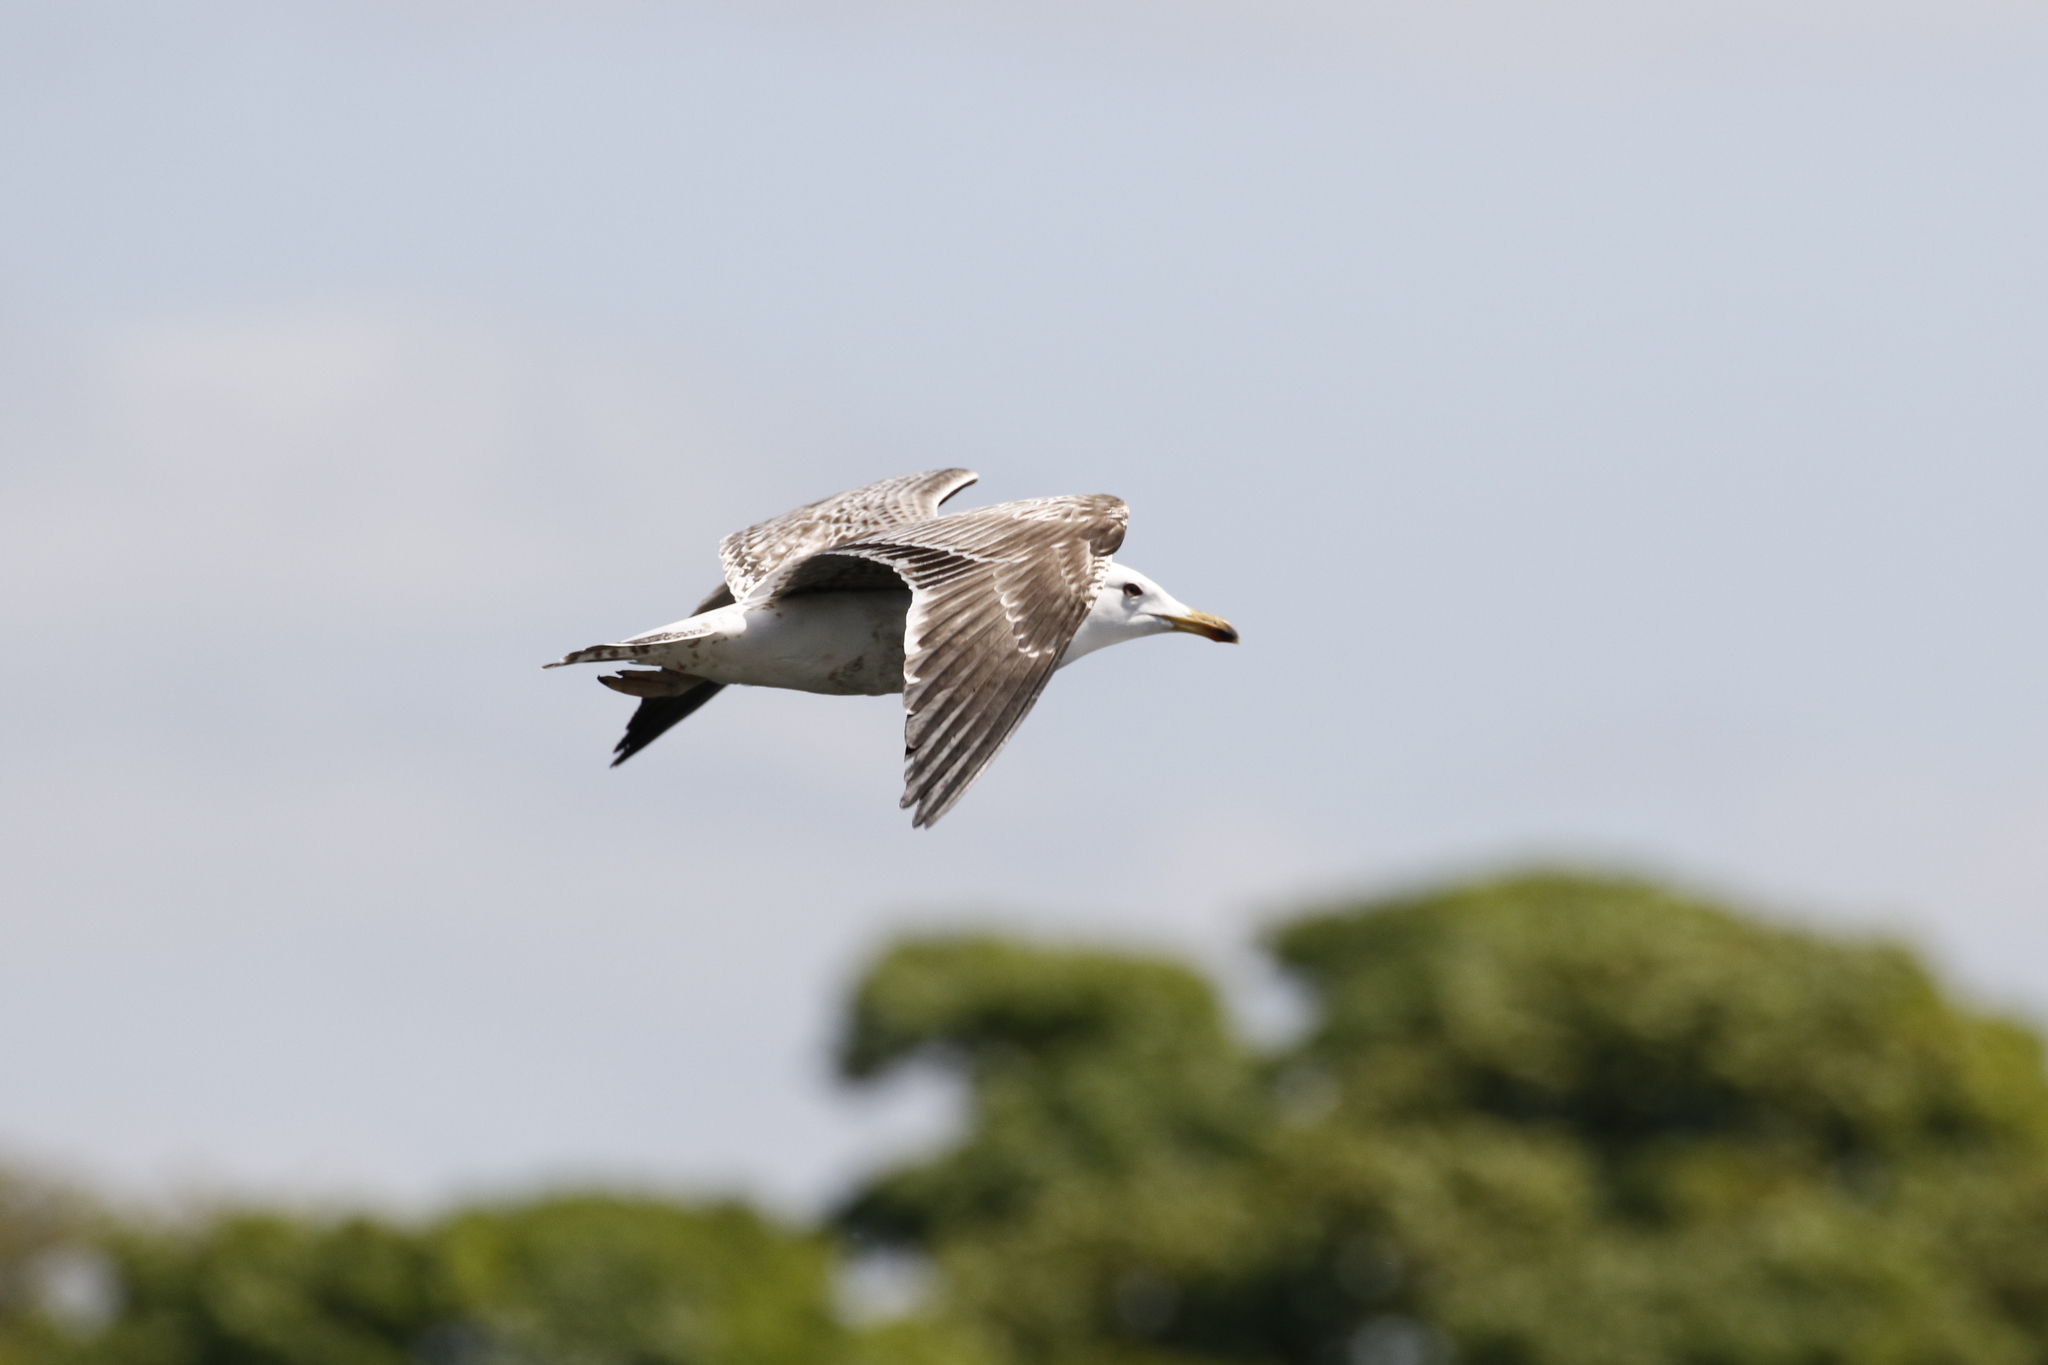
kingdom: Animalia
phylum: Chordata
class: Aves
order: Charadriiformes
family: Laridae
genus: Larus
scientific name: Larus marinus
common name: Great black-backed gull
